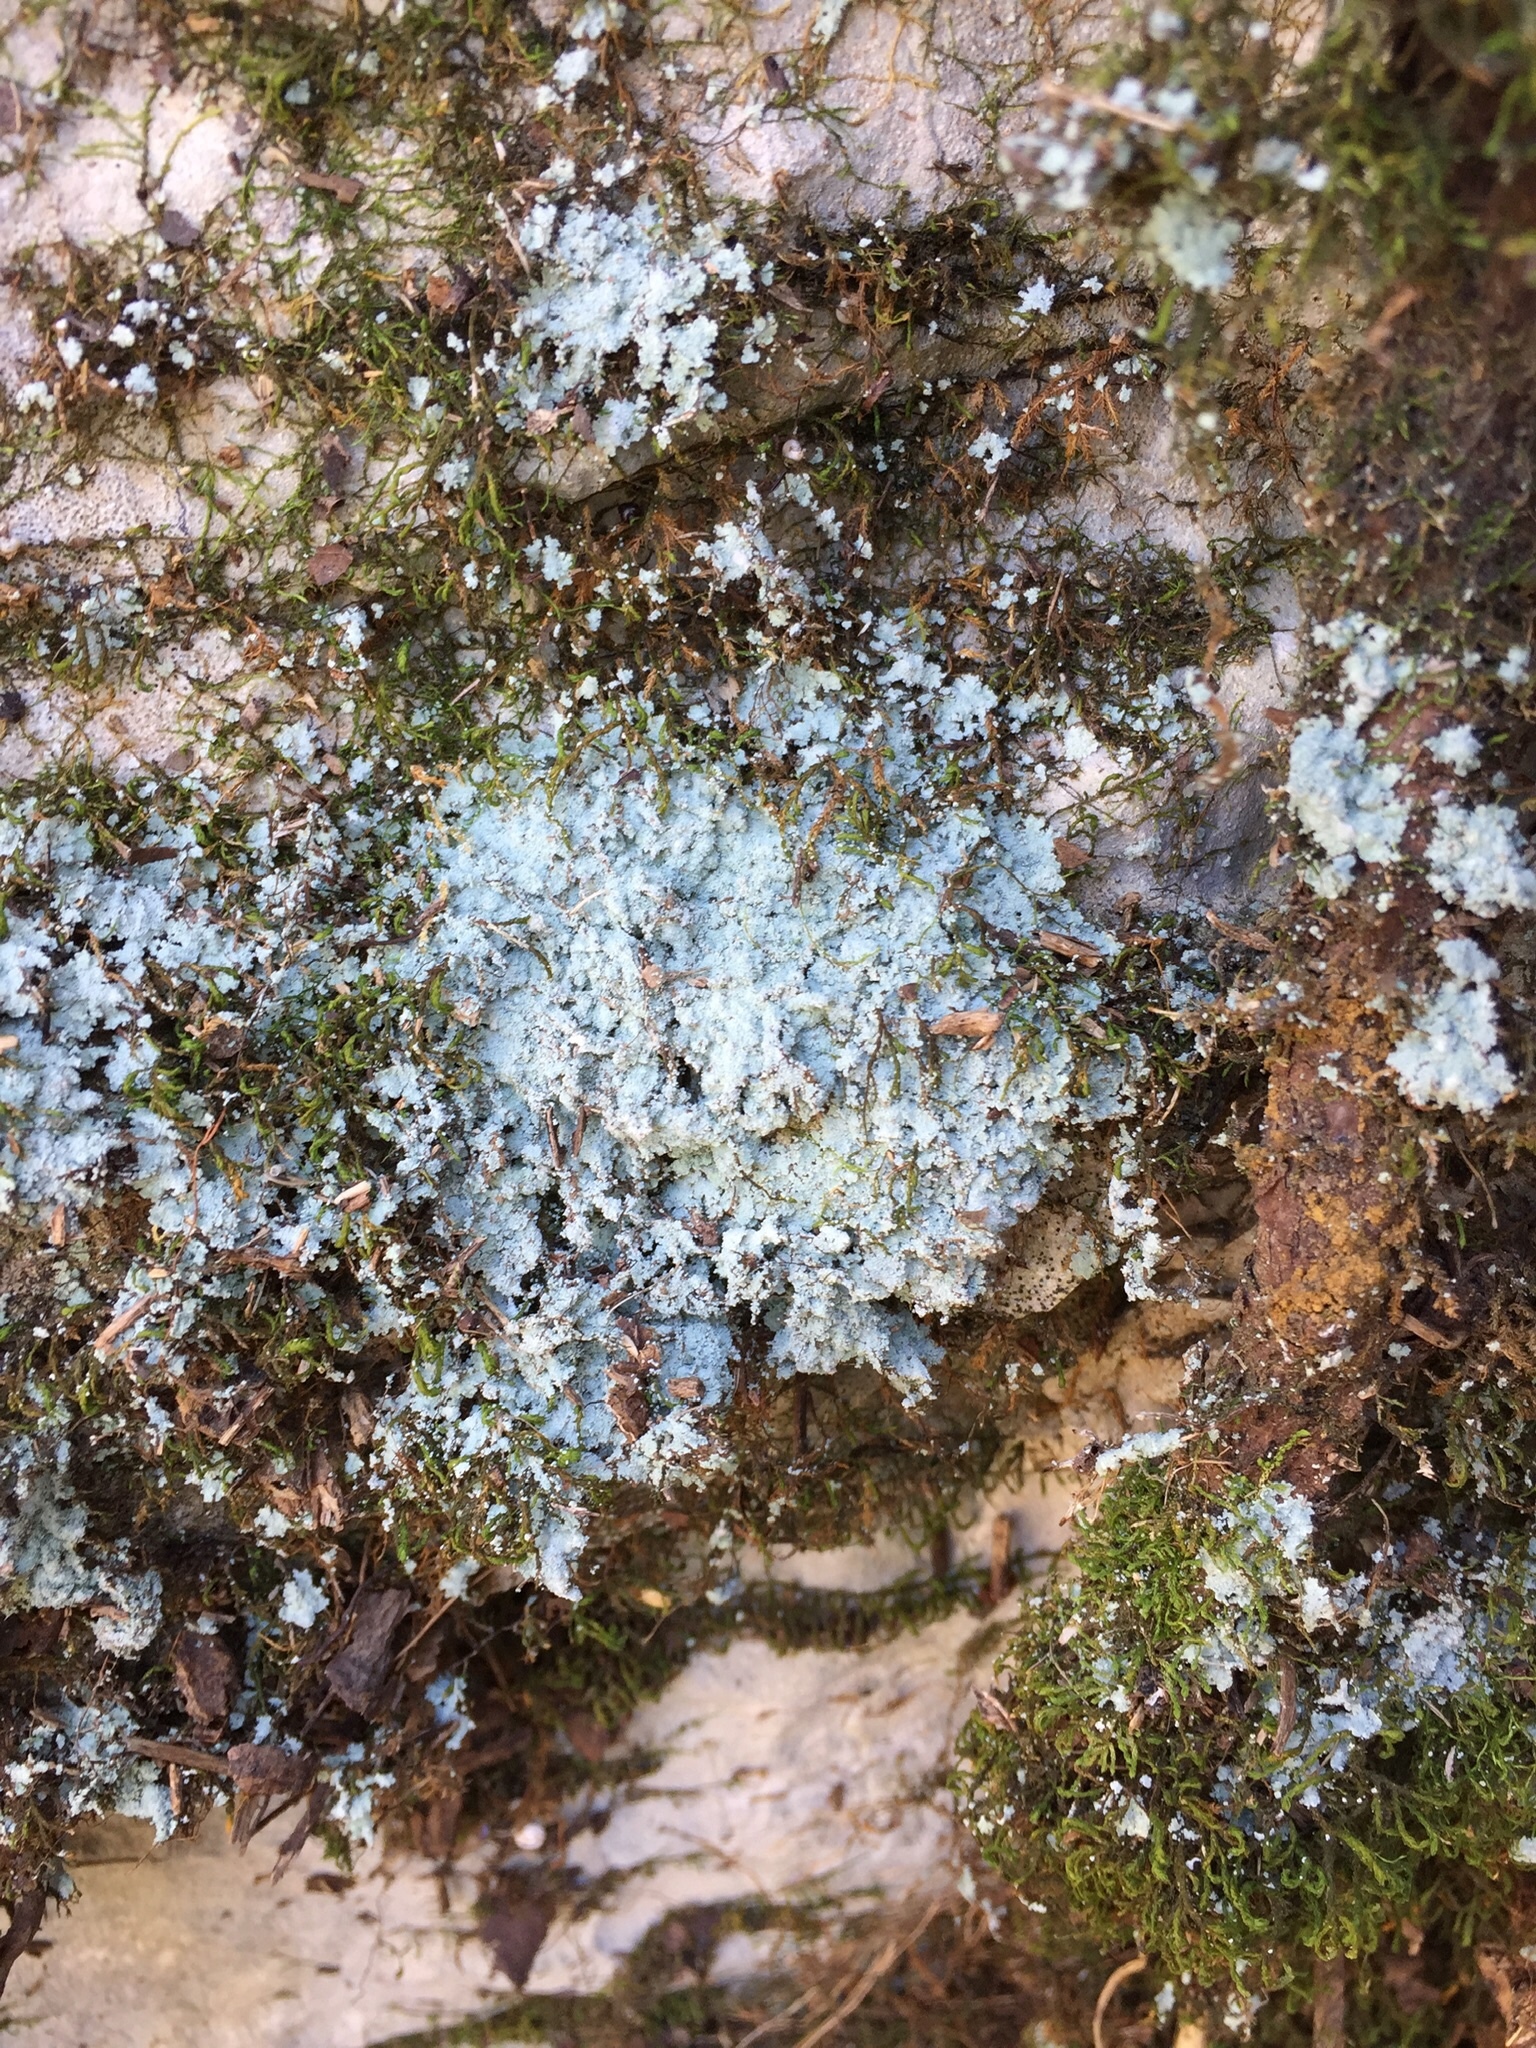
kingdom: Fungi
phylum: Ascomycota
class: Lecanoromycetes
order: Lecanorales
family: Stereocaulaceae
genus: Lepraria
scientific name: Lepraria lobificans
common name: Fluffy dust lichen
